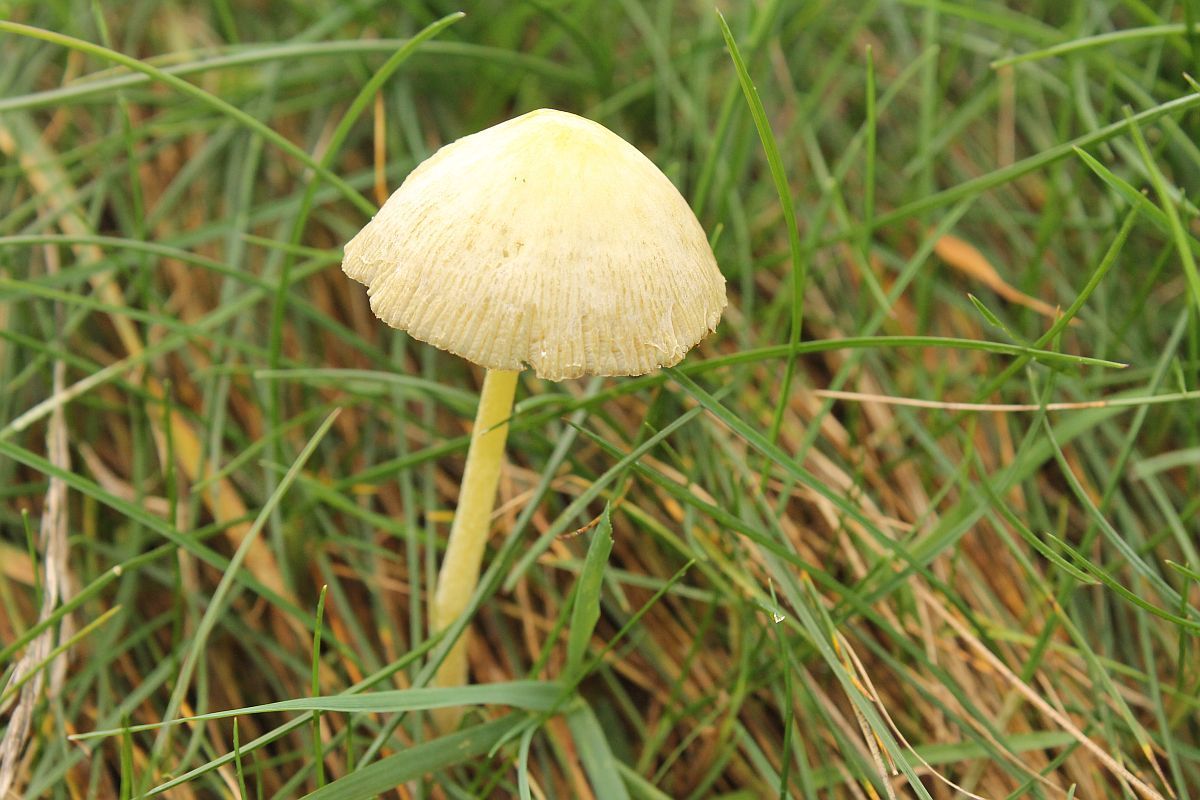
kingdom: Fungi
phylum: Basidiomycota
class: Agaricomycetes
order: Agaricales
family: Bolbitiaceae
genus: Bolbitius
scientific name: Bolbitius titubans
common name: Yellow fieldcap
